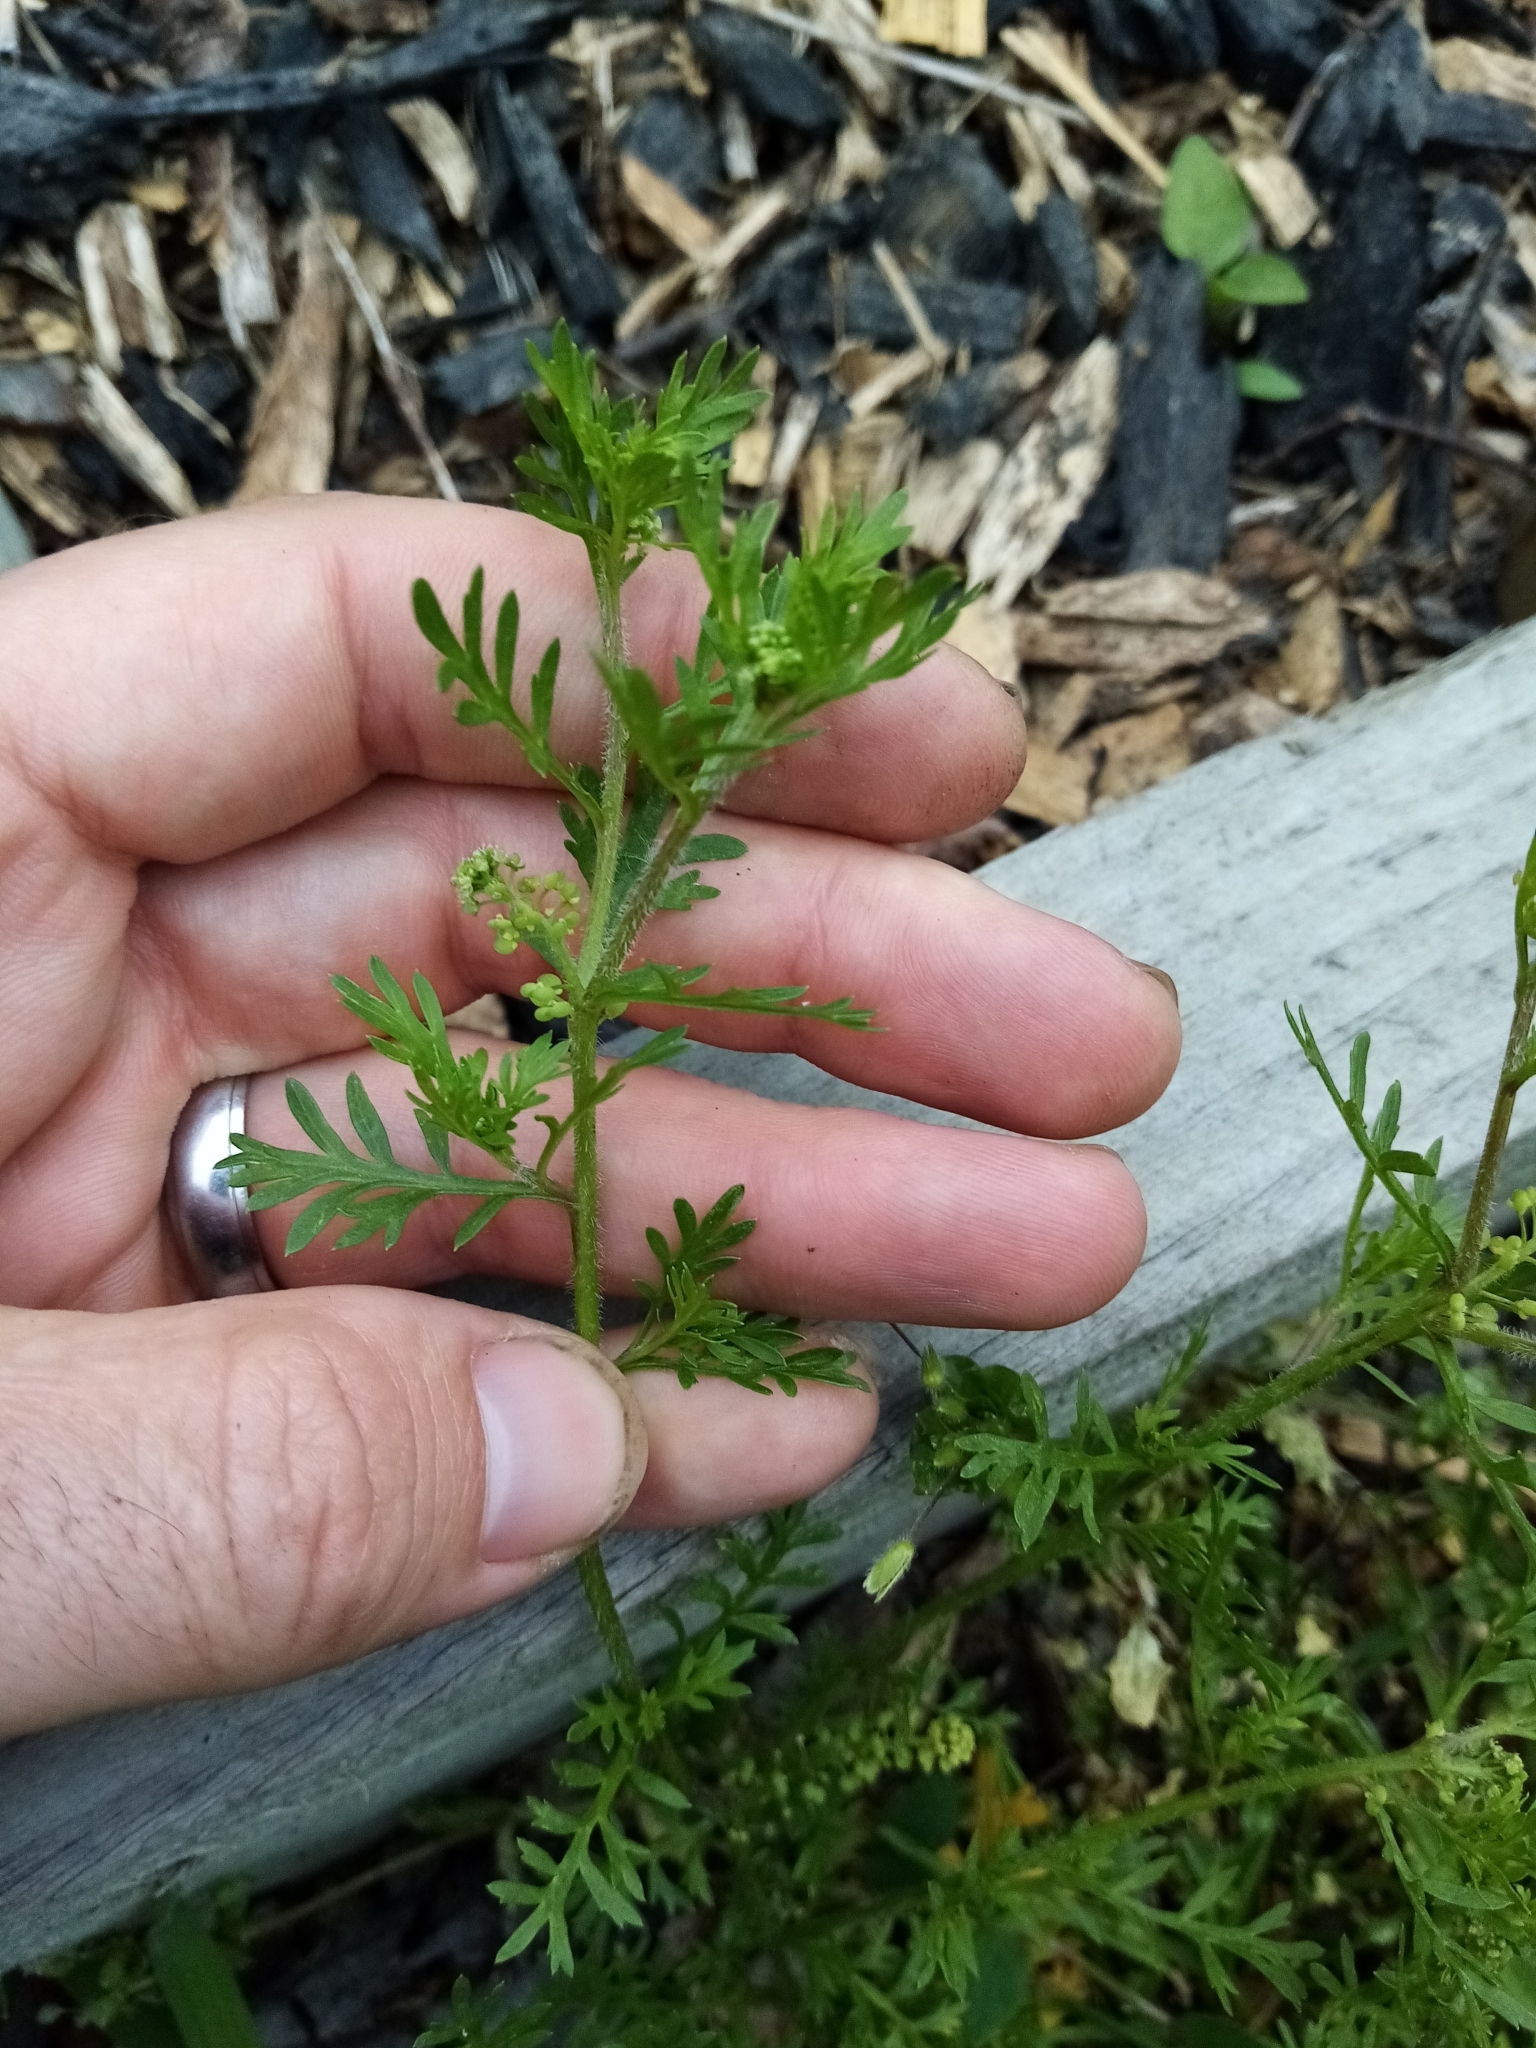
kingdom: Plantae
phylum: Tracheophyta
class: Magnoliopsida
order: Brassicales
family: Brassicaceae
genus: Lepidium
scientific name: Lepidium didymum
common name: Lesser swinecress
